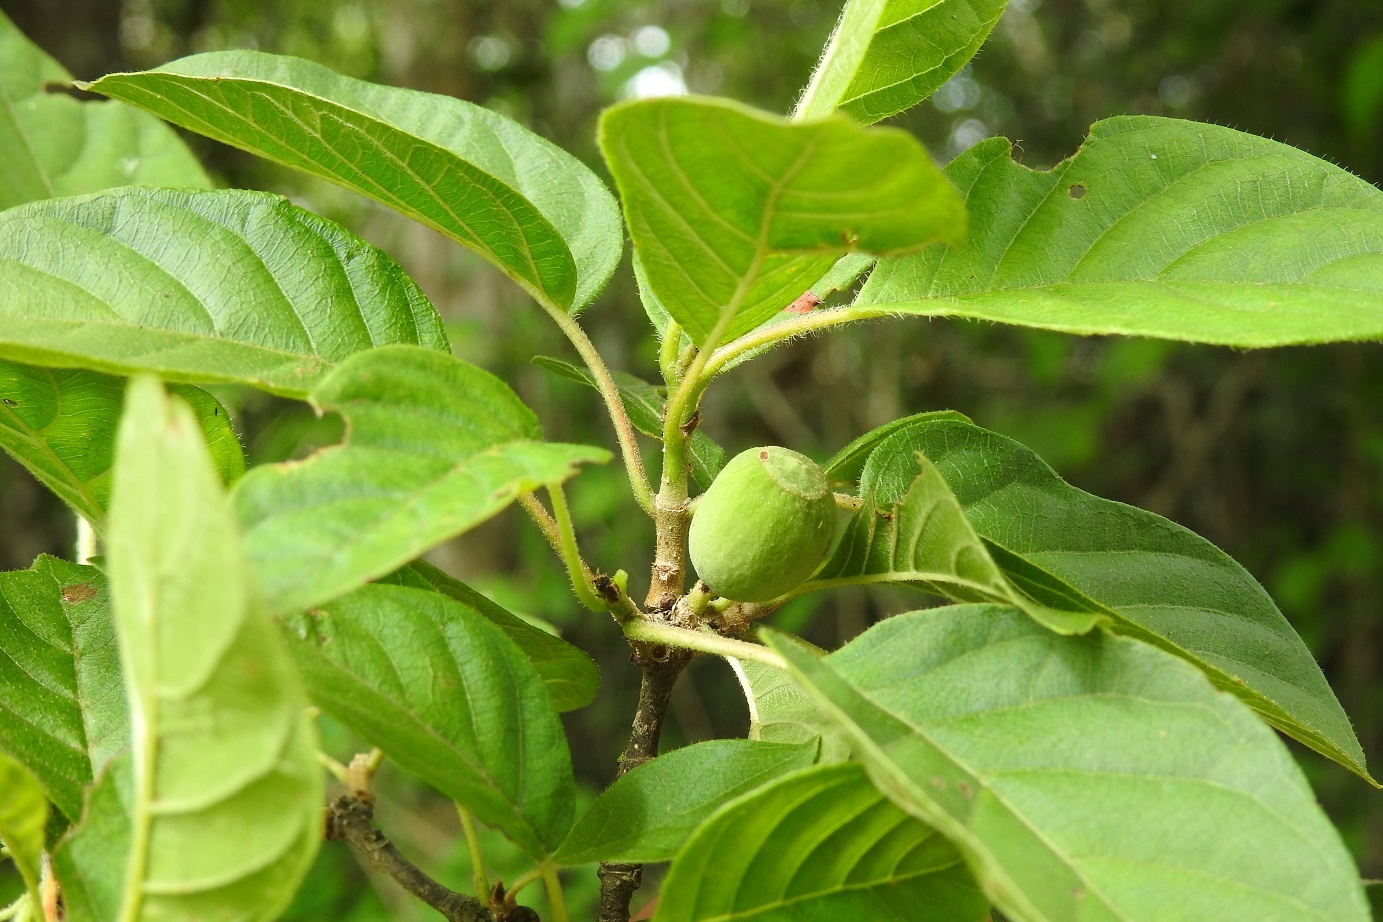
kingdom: Plantae
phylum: Tracheophyta
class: Magnoliopsida
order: Gentianales
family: Rubiaceae
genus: Guettarda
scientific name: Guettarda macrosperma
